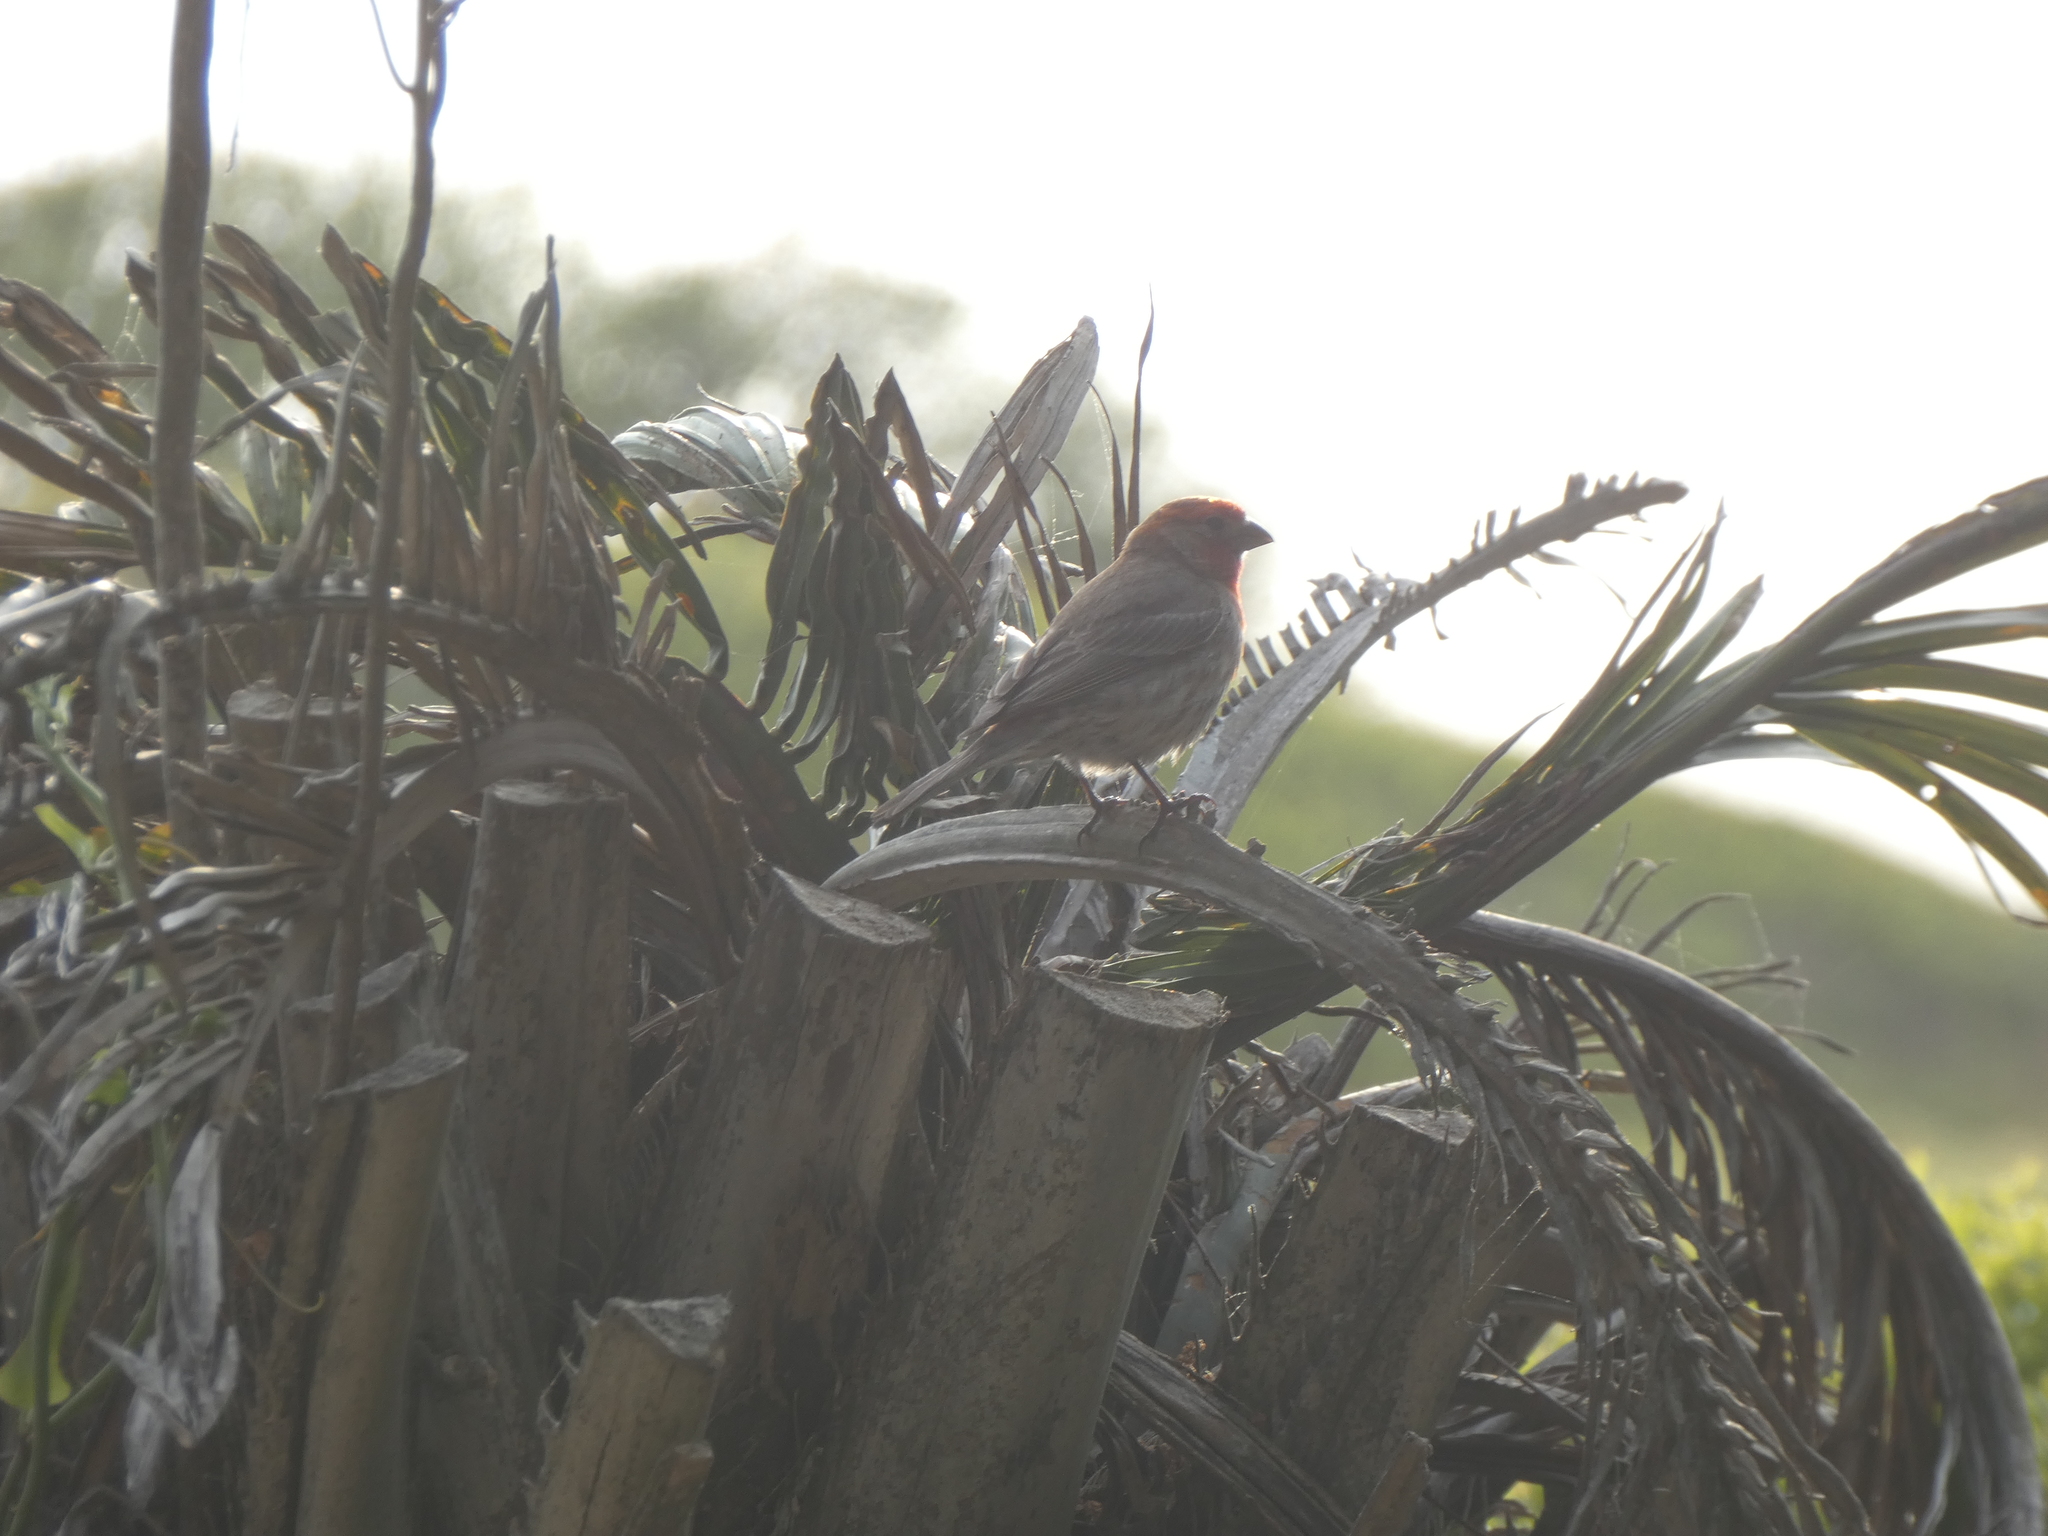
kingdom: Animalia
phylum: Chordata
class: Aves
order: Passeriformes
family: Fringillidae
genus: Haemorhous
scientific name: Haemorhous mexicanus
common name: House finch
